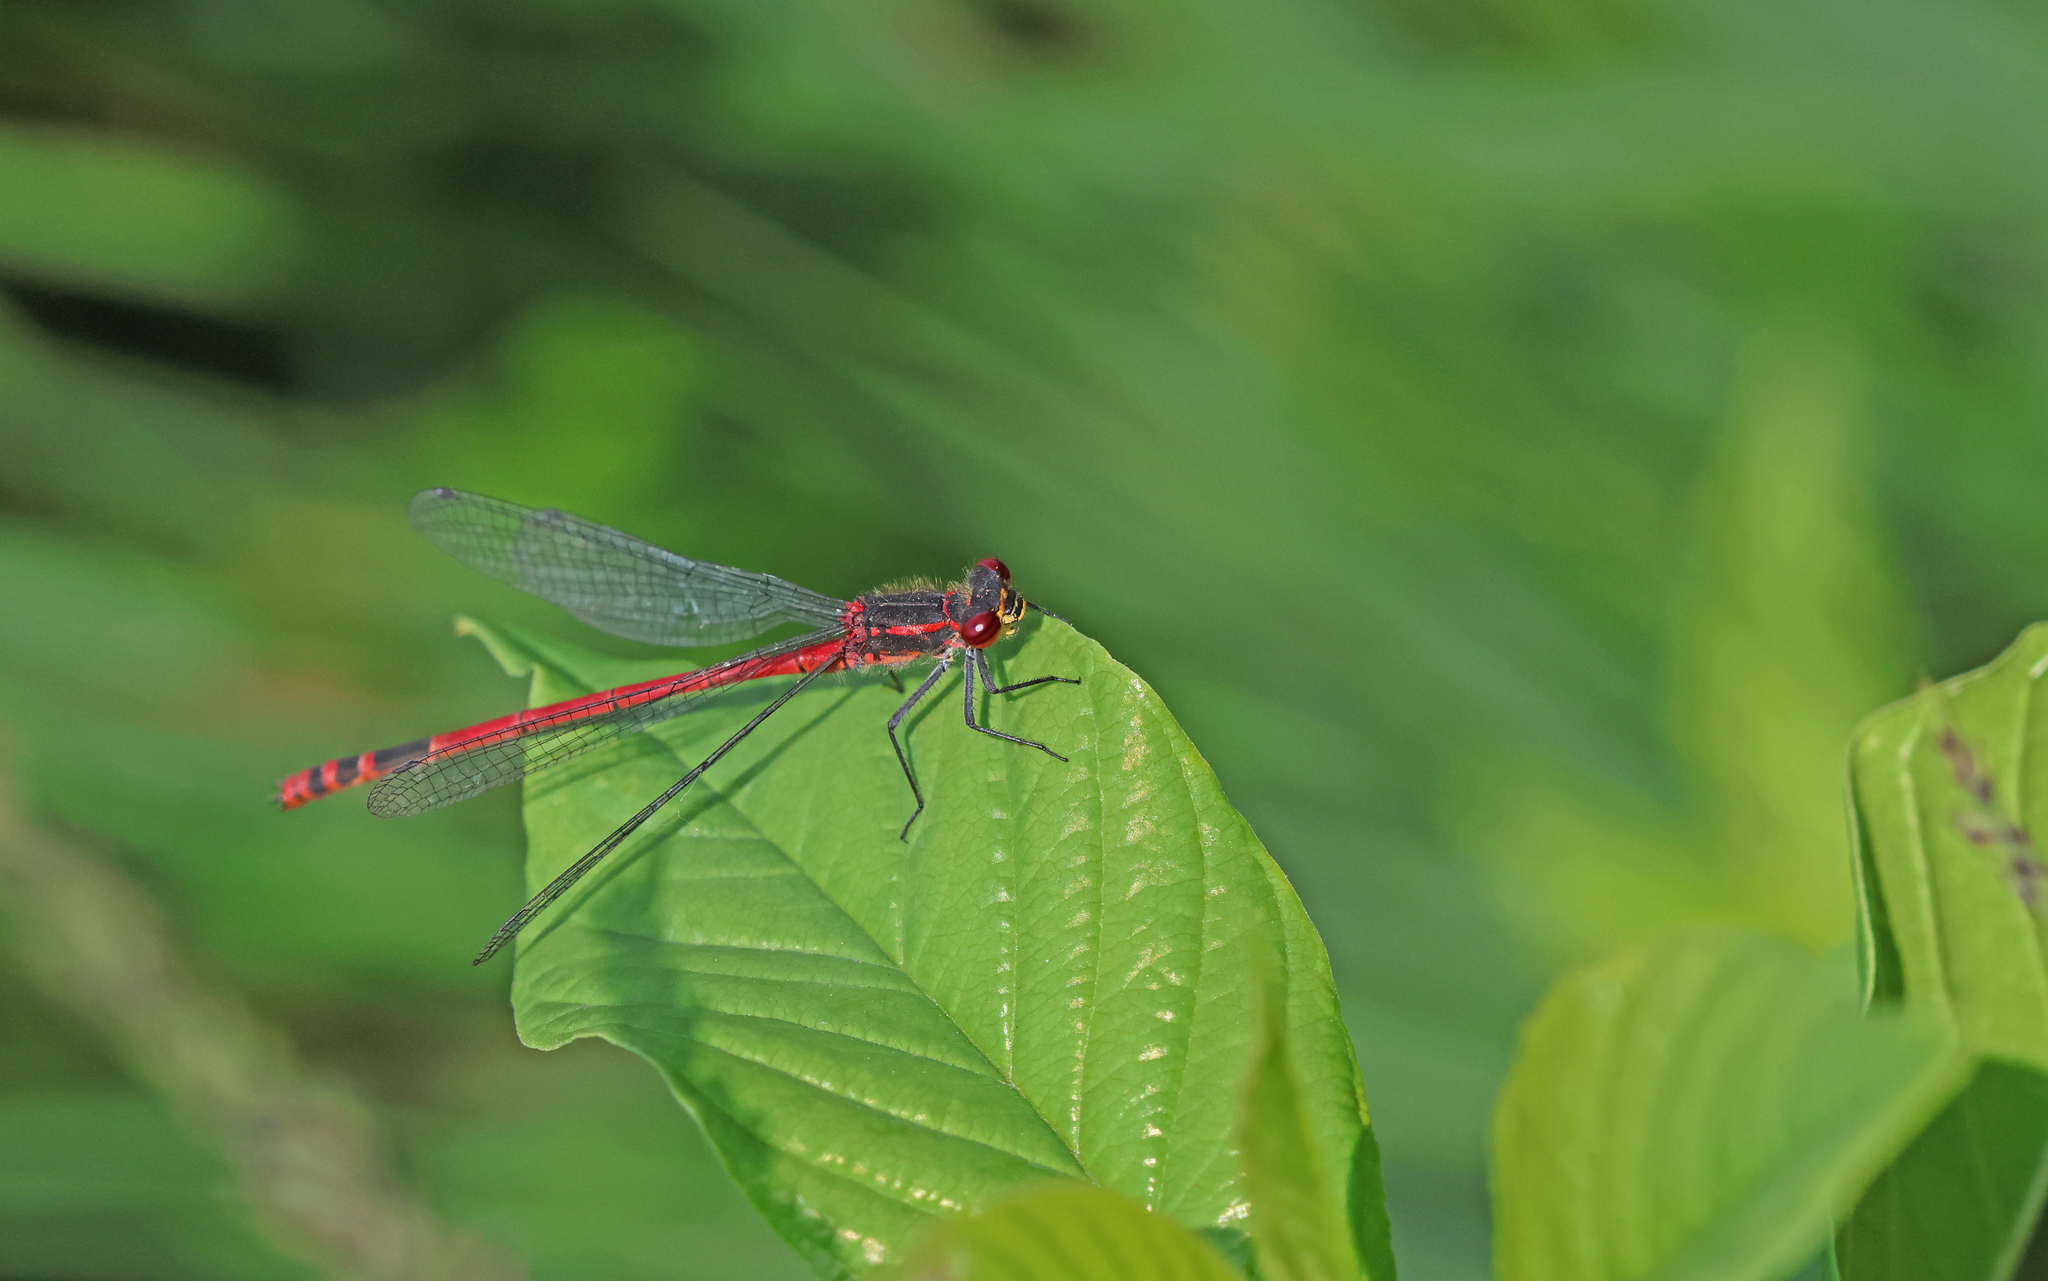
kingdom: Animalia
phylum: Arthropoda
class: Insecta
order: Odonata
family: Coenagrionidae
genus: Pyrrhosoma
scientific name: Pyrrhosoma nymphula
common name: Large red damsel
